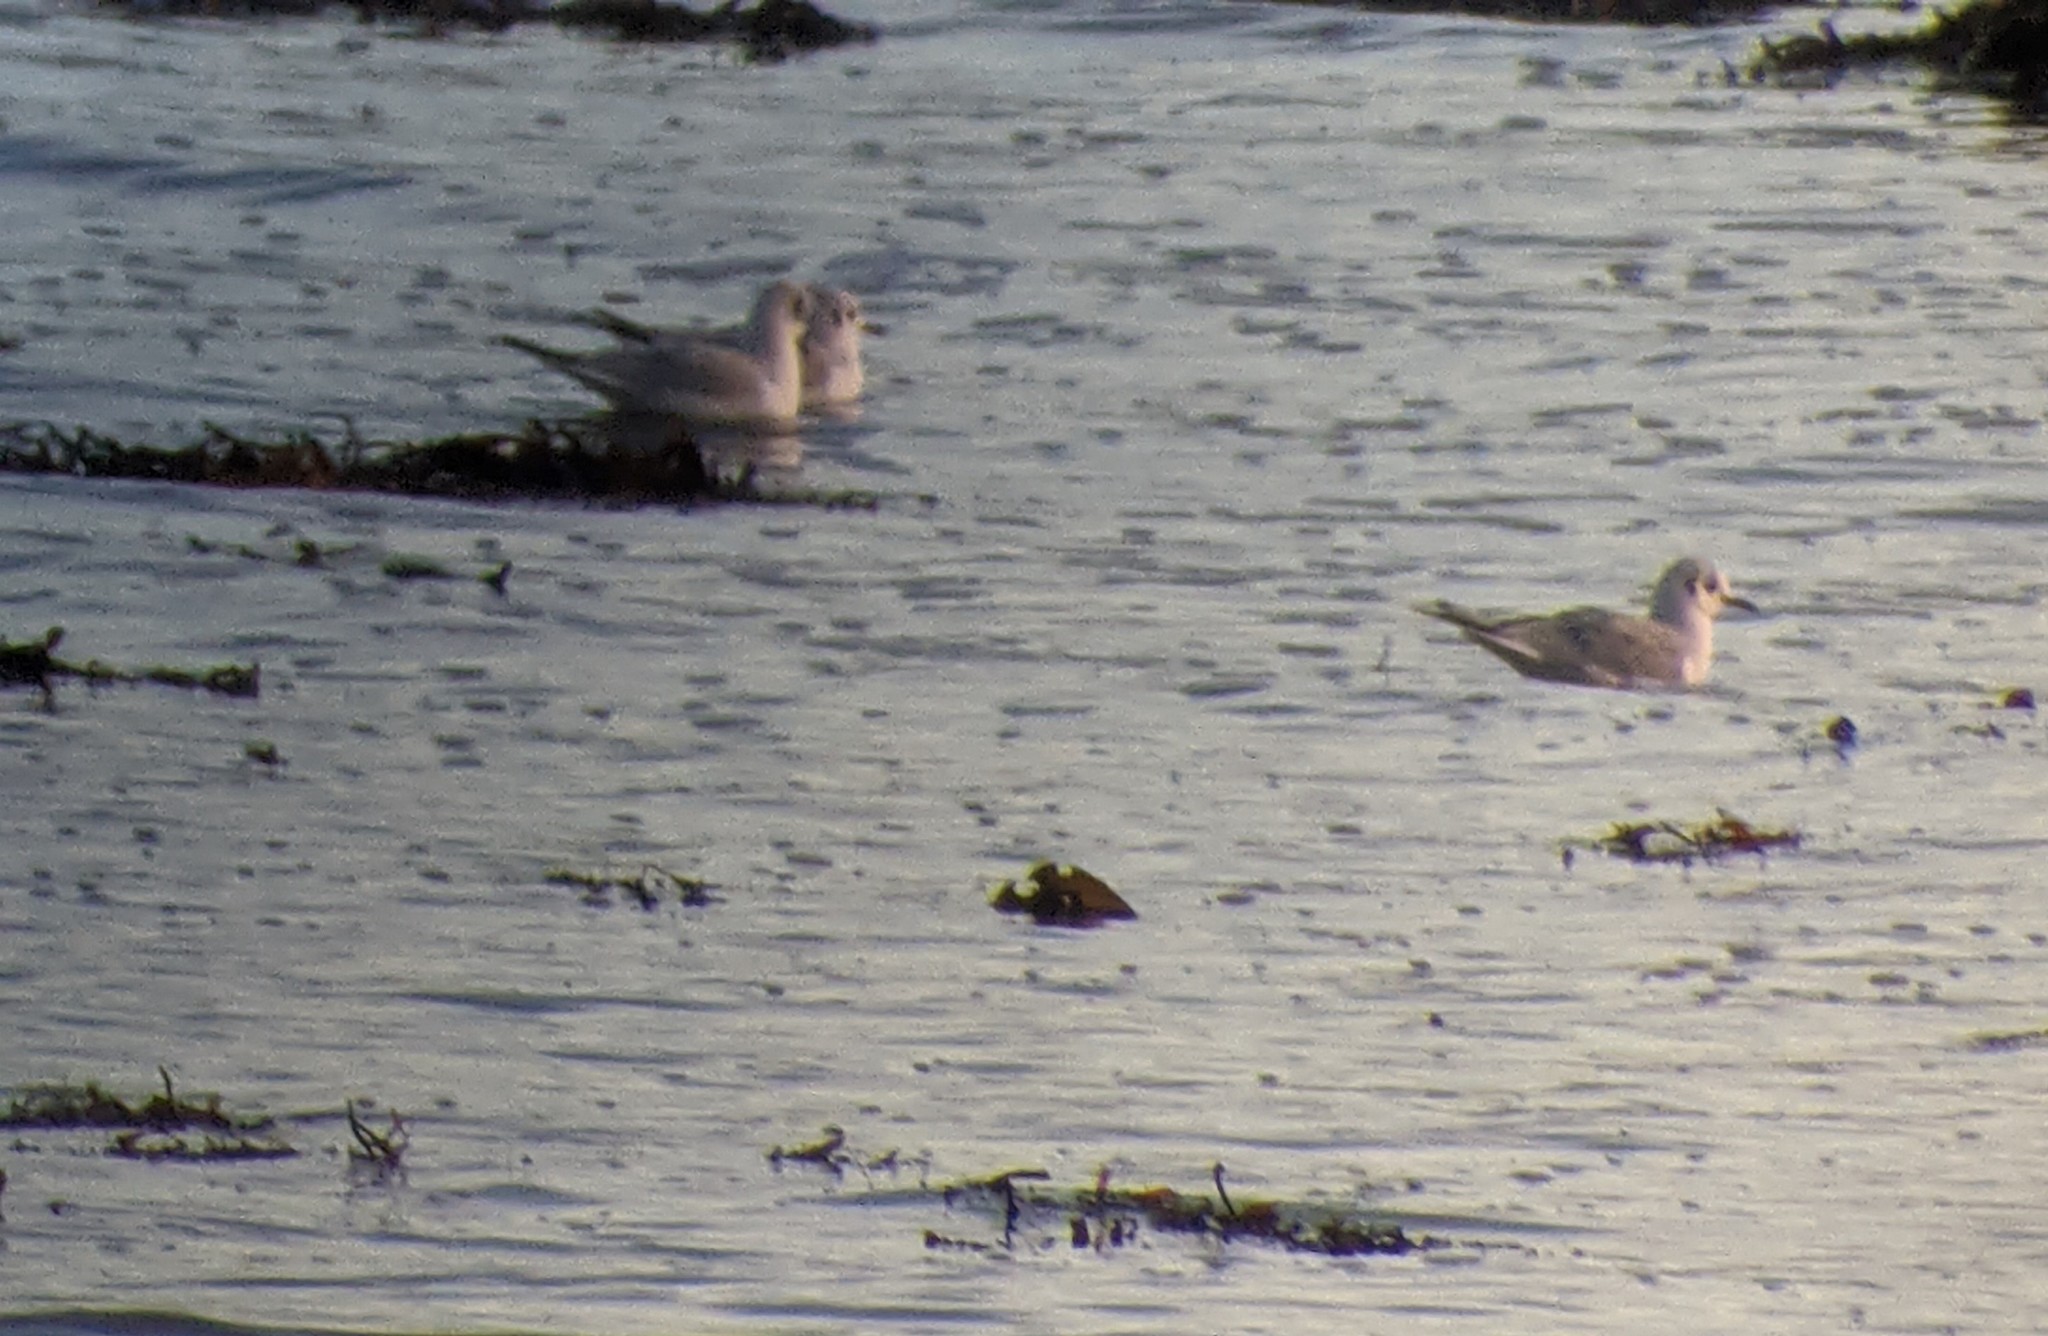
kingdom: Animalia
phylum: Chordata
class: Aves
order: Charadriiformes
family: Laridae
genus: Chroicocephalus
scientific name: Chroicocephalus philadelphia
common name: Bonaparte's gull
